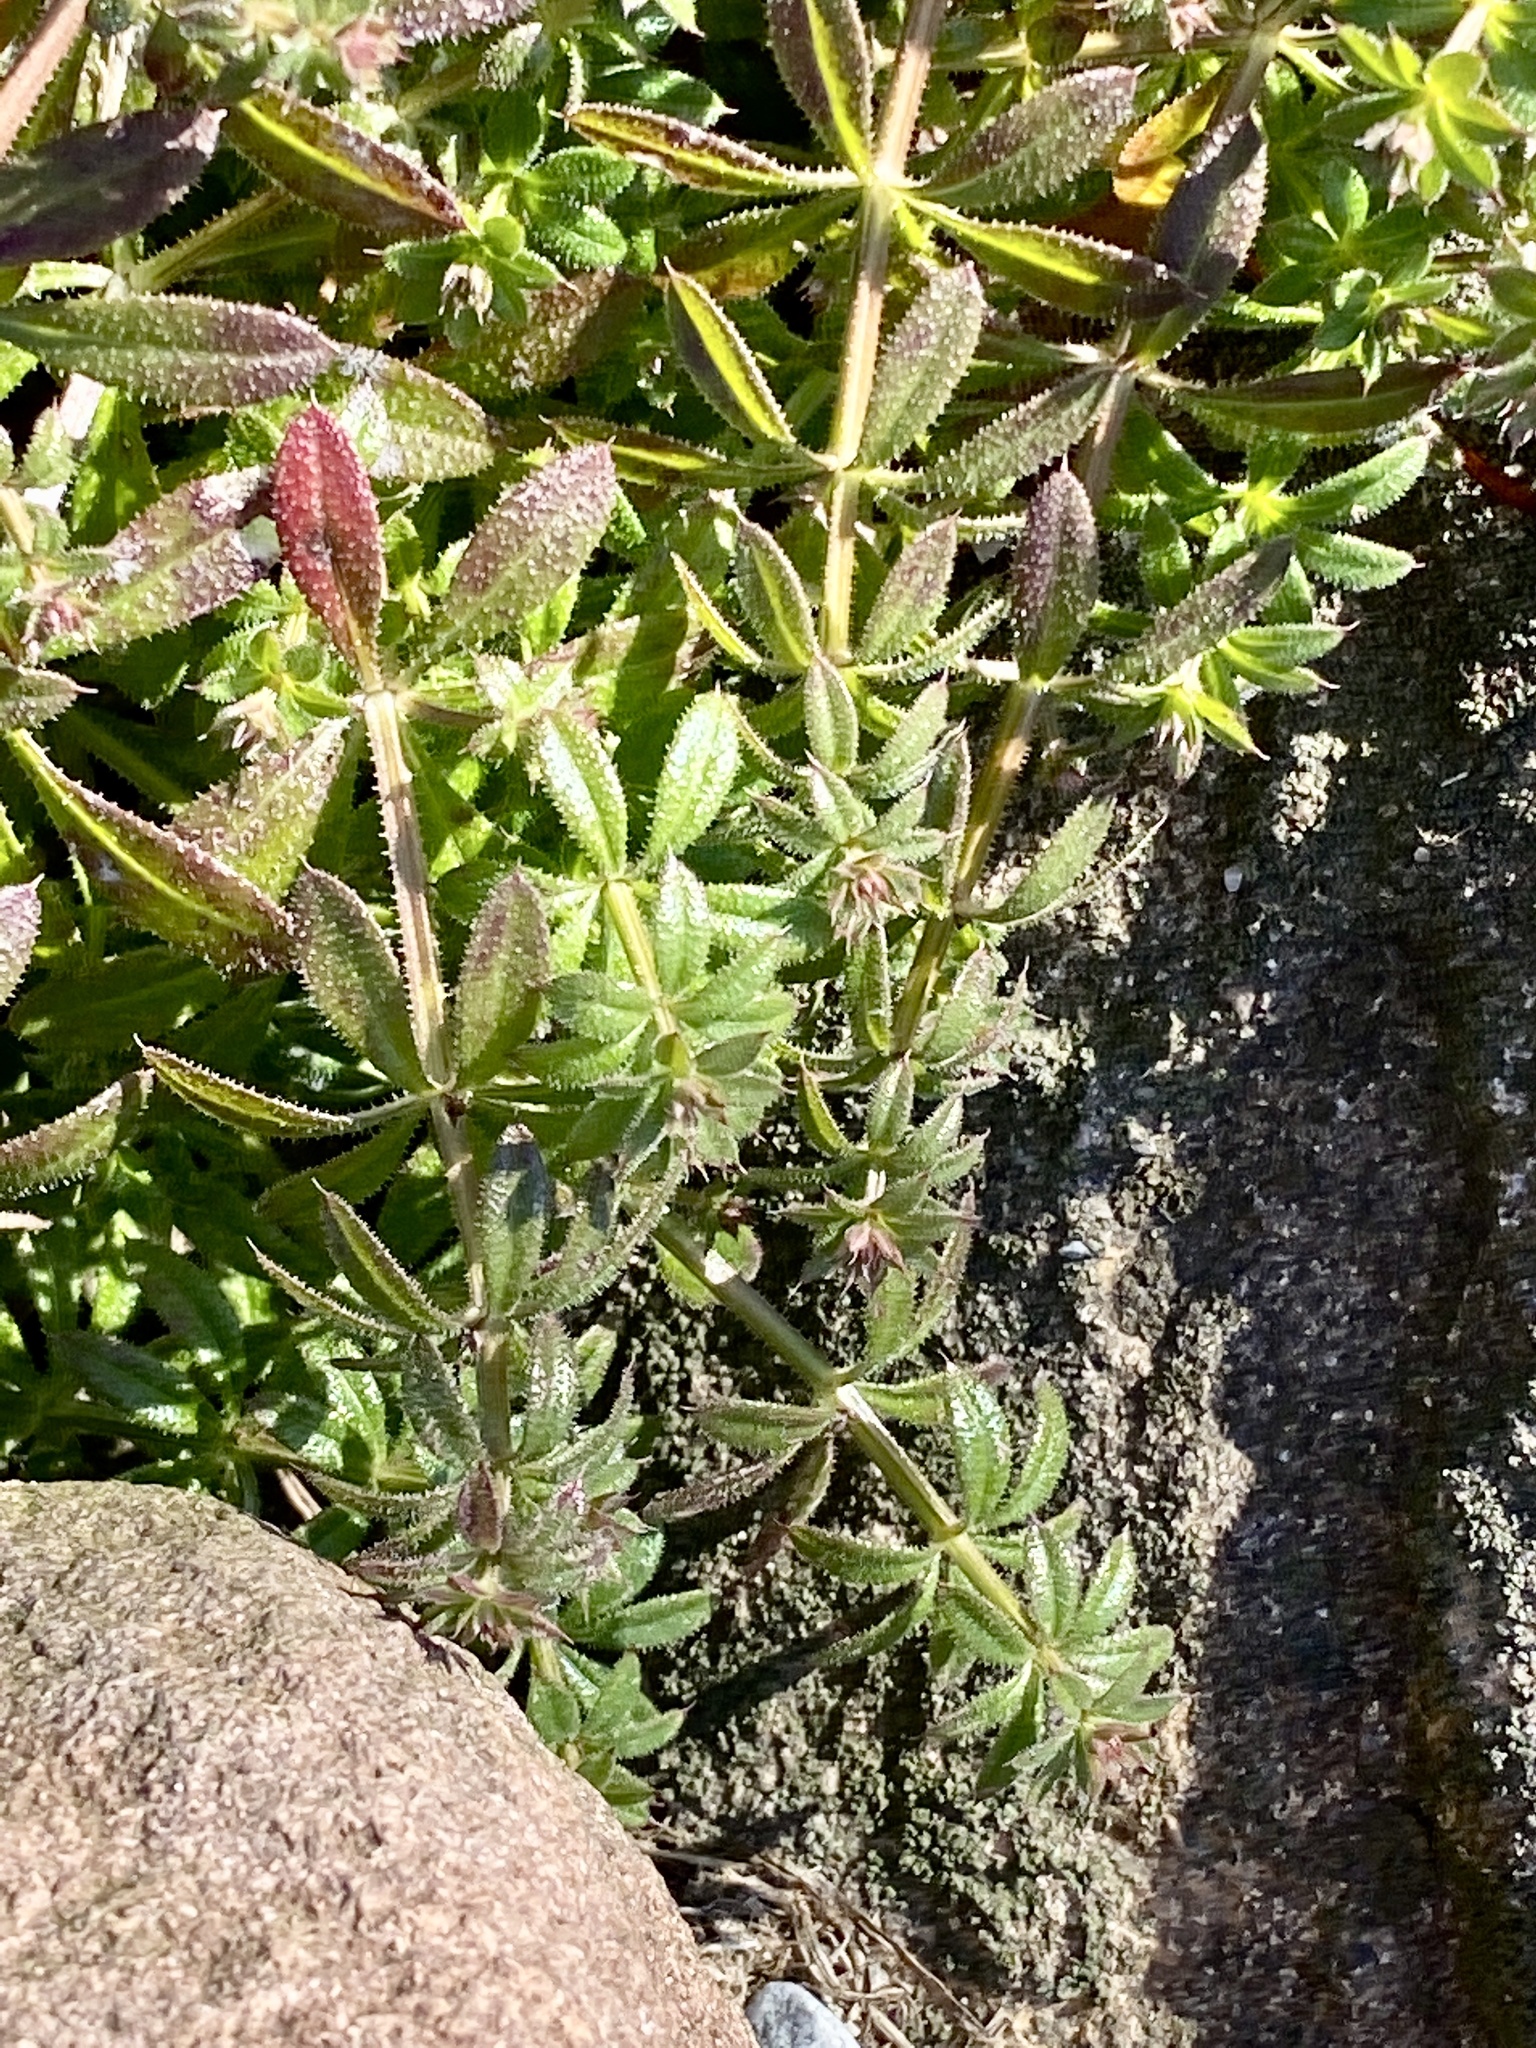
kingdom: Plantae
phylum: Tracheophyta
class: Magnoliopsida
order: Gentianales
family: Rubiaceae
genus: Galium
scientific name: Galium aparine
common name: Cleavers
